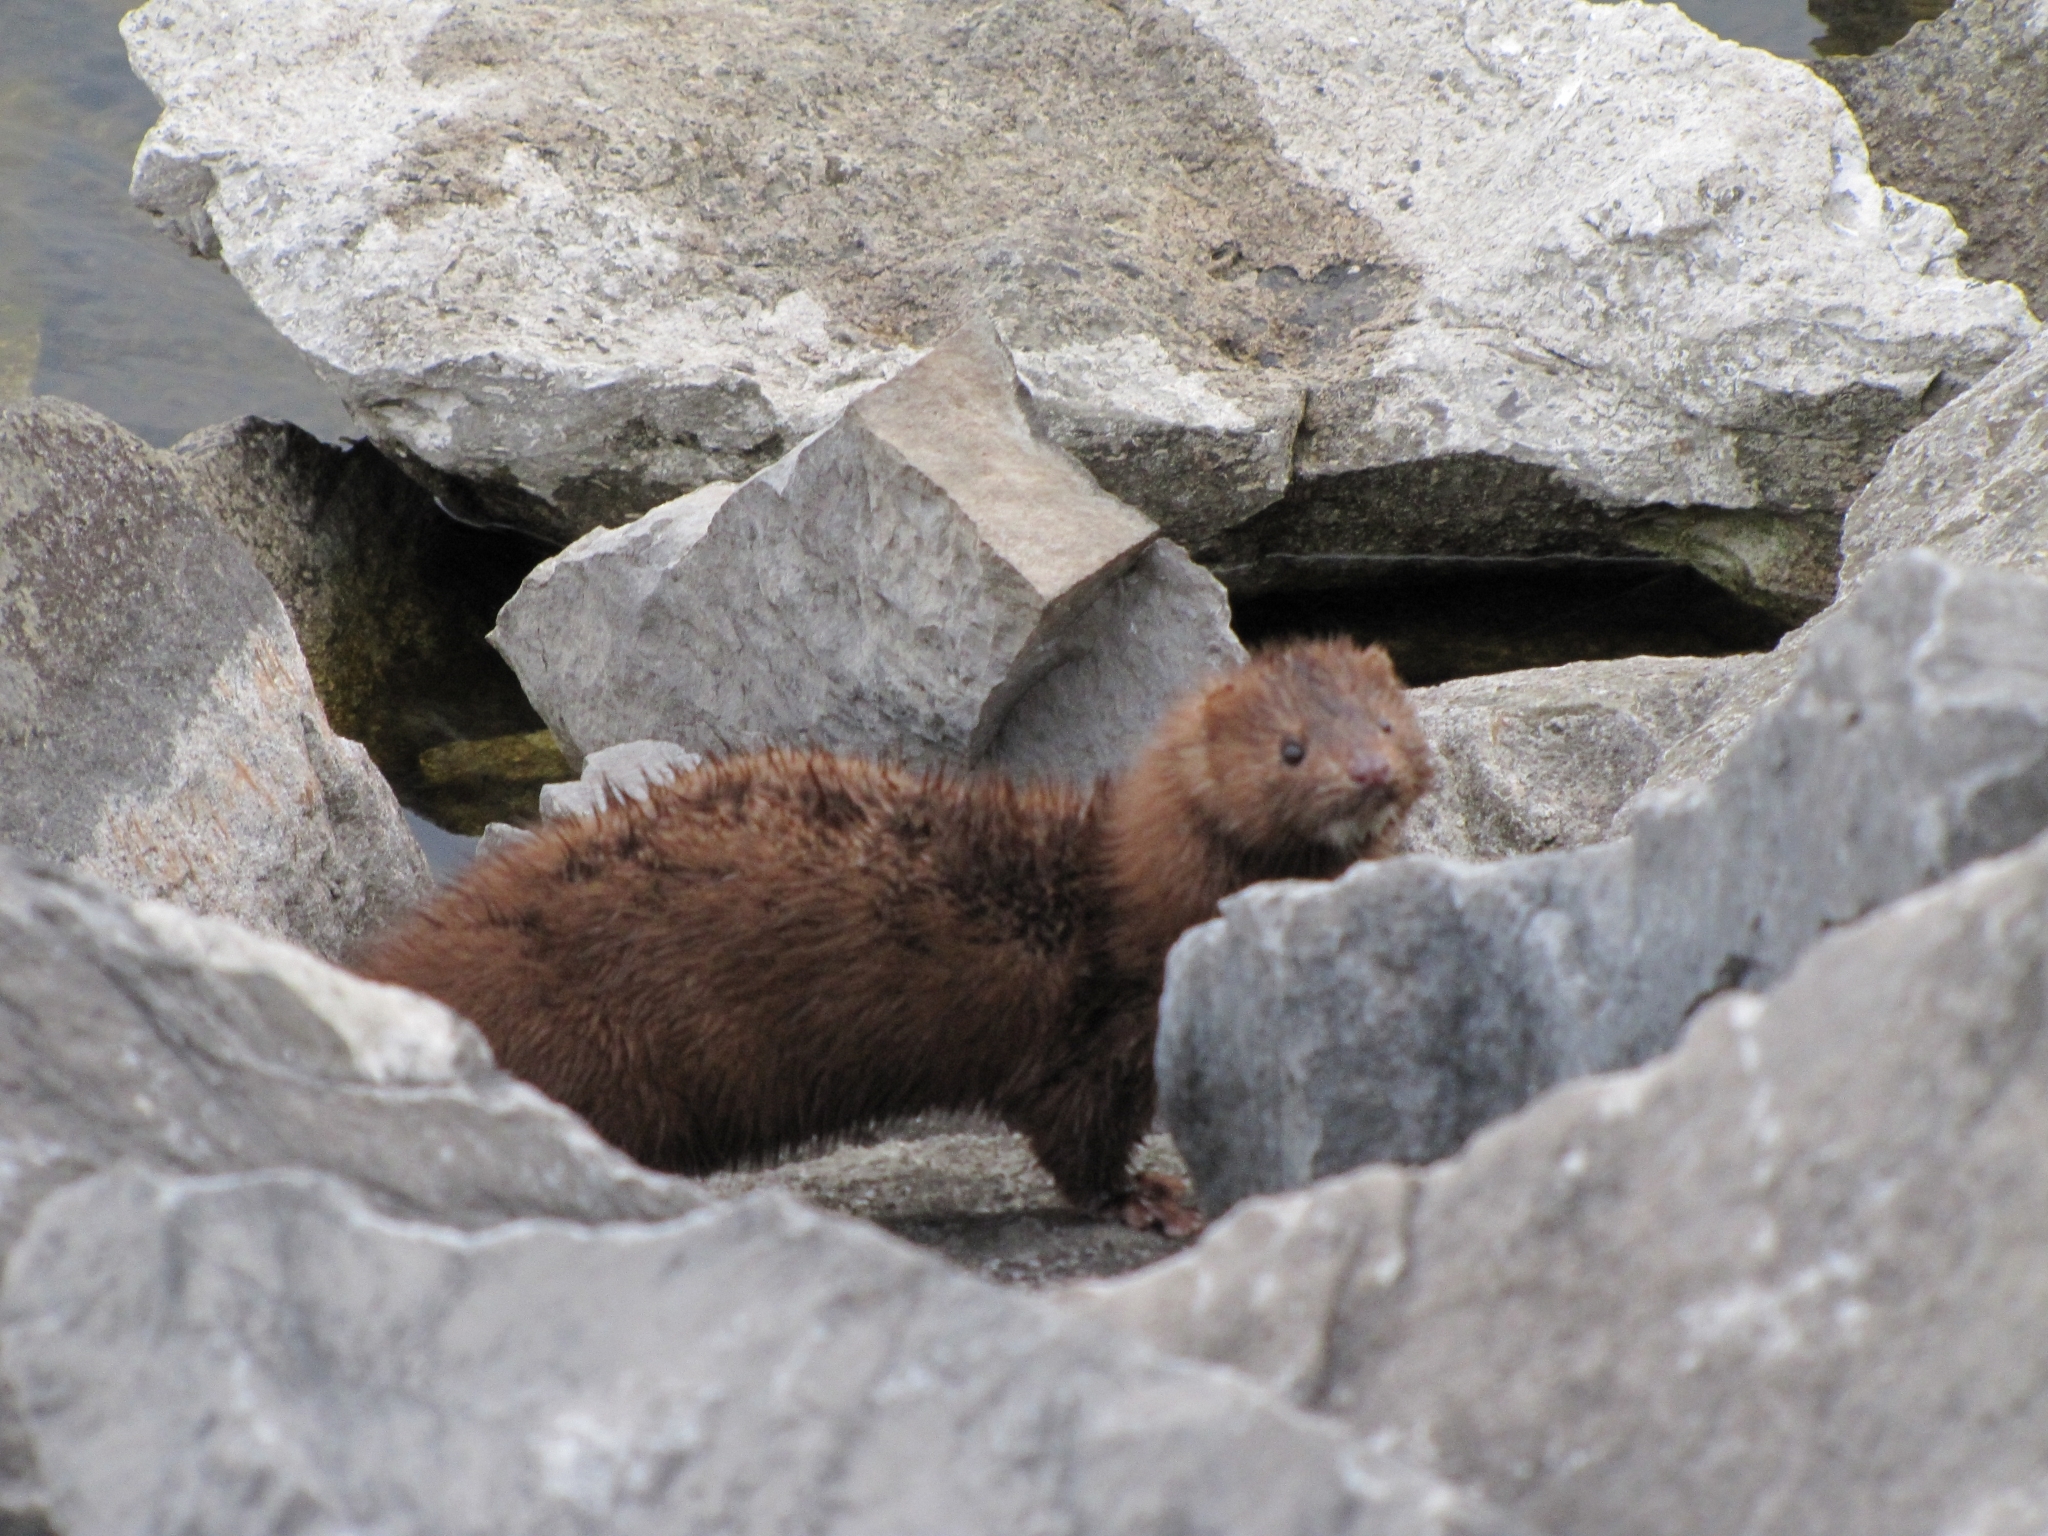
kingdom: Animalia
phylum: Chordata
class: Mammalia
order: Carnivora
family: Mustelidae
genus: Mustela
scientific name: Mustela
